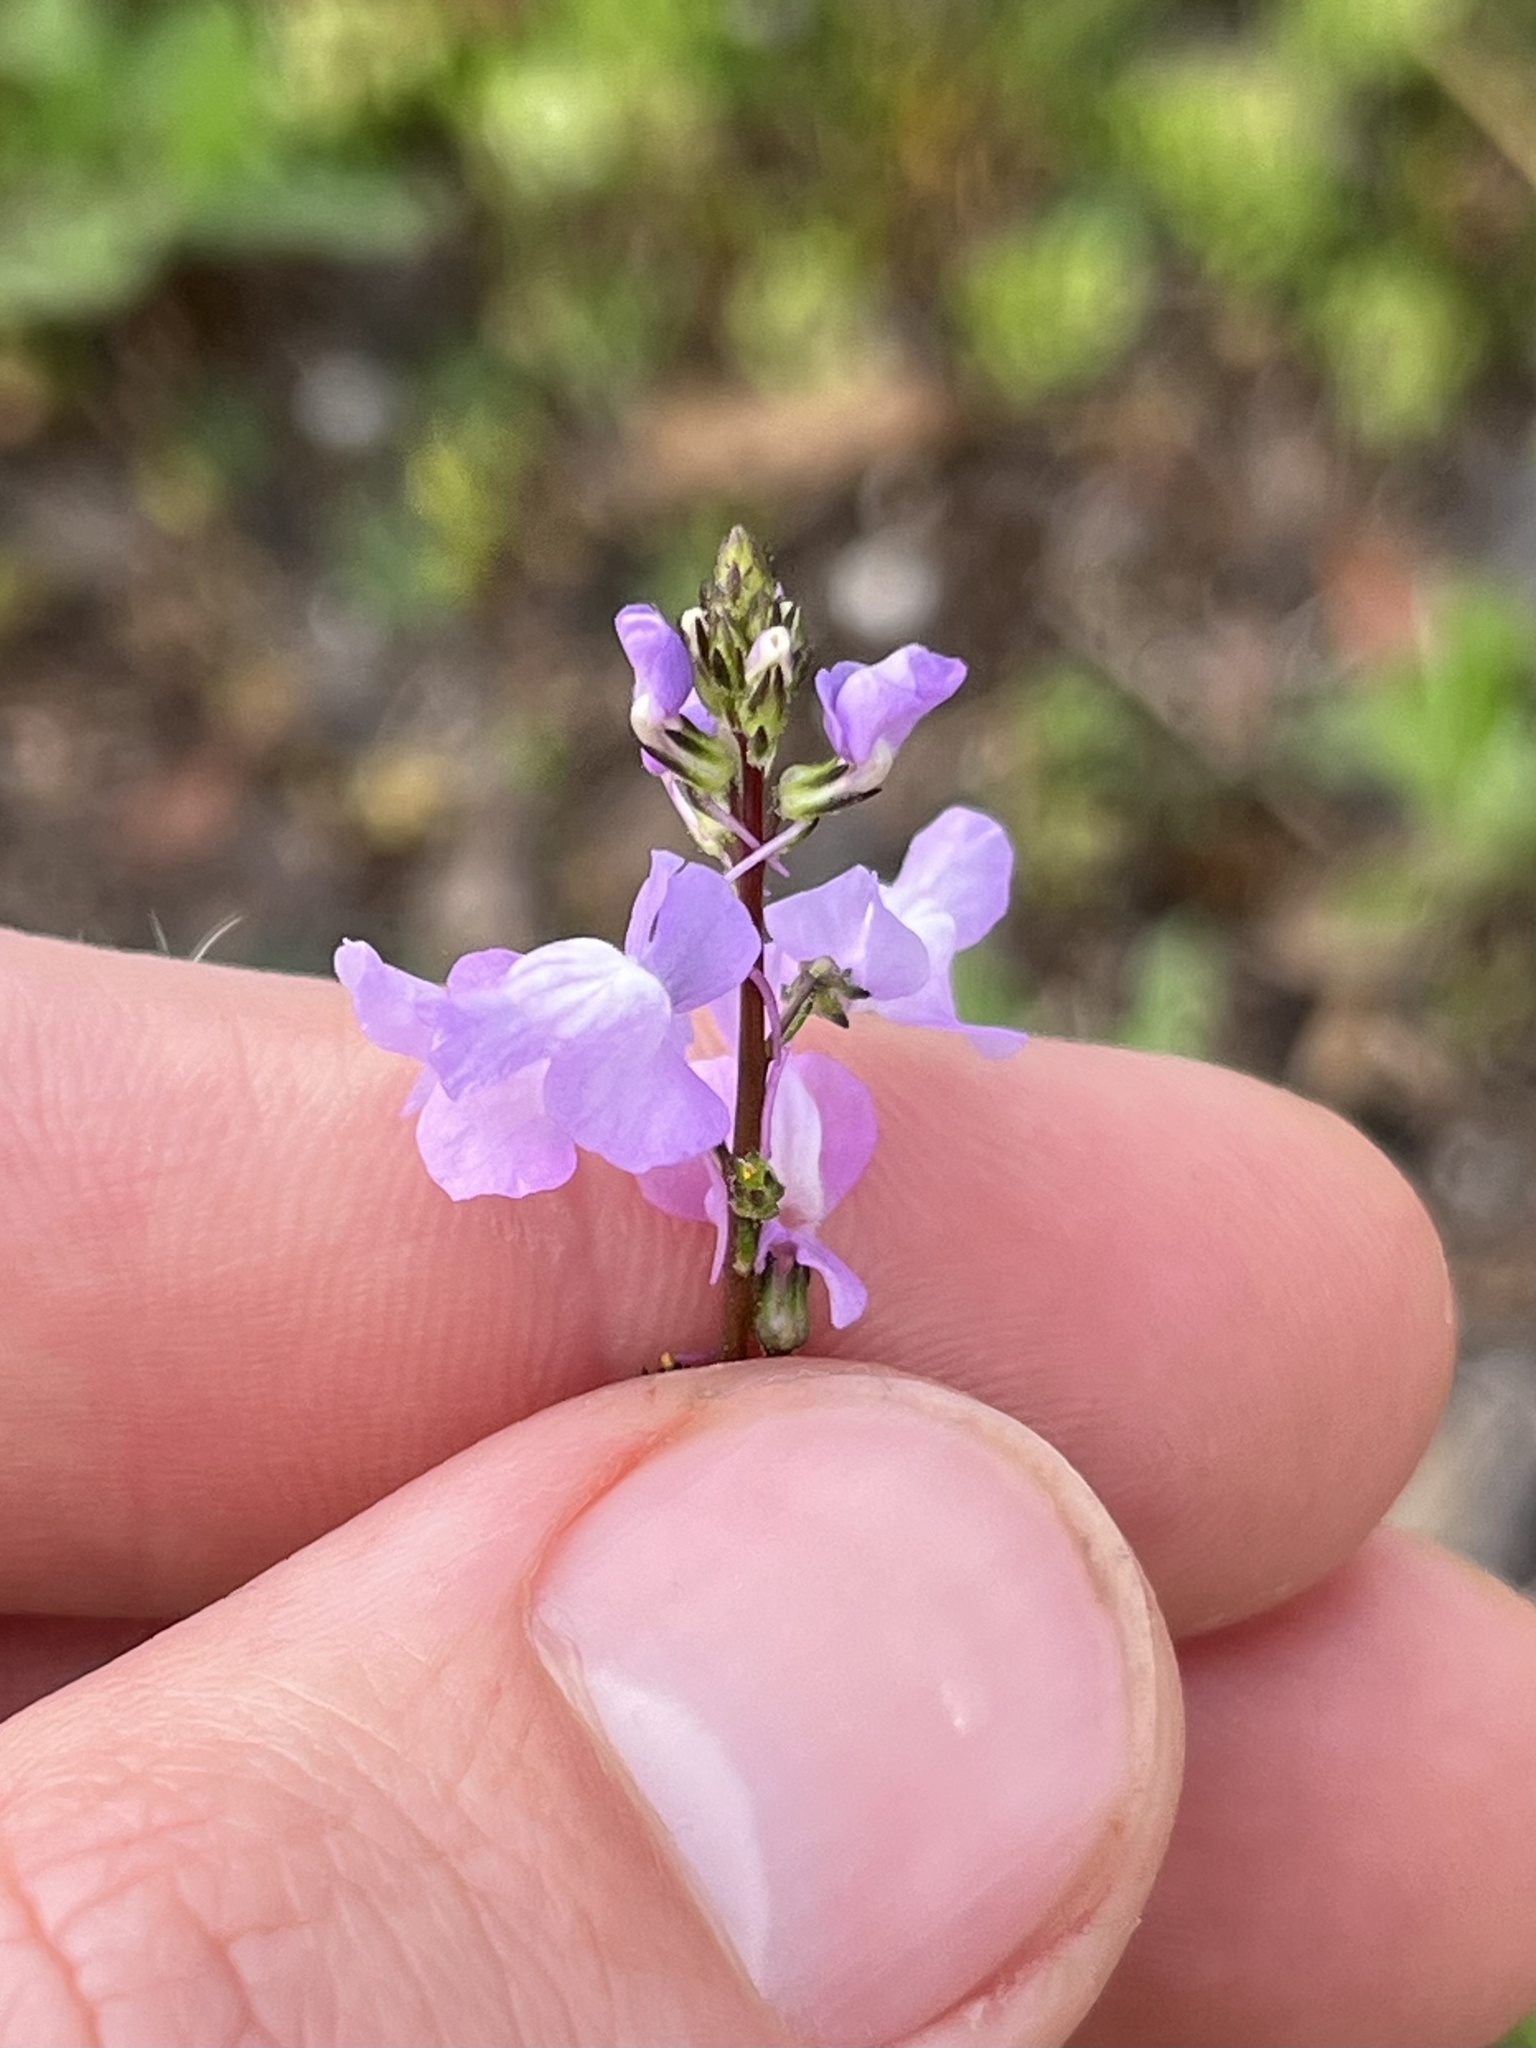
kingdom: Plantae
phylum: Tracheophyta
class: Magnoliopsida
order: Lamiales
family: Plantaginaceae
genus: Nuttallanthus
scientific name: Nuttallanthus canadensis
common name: Blue toadflax
